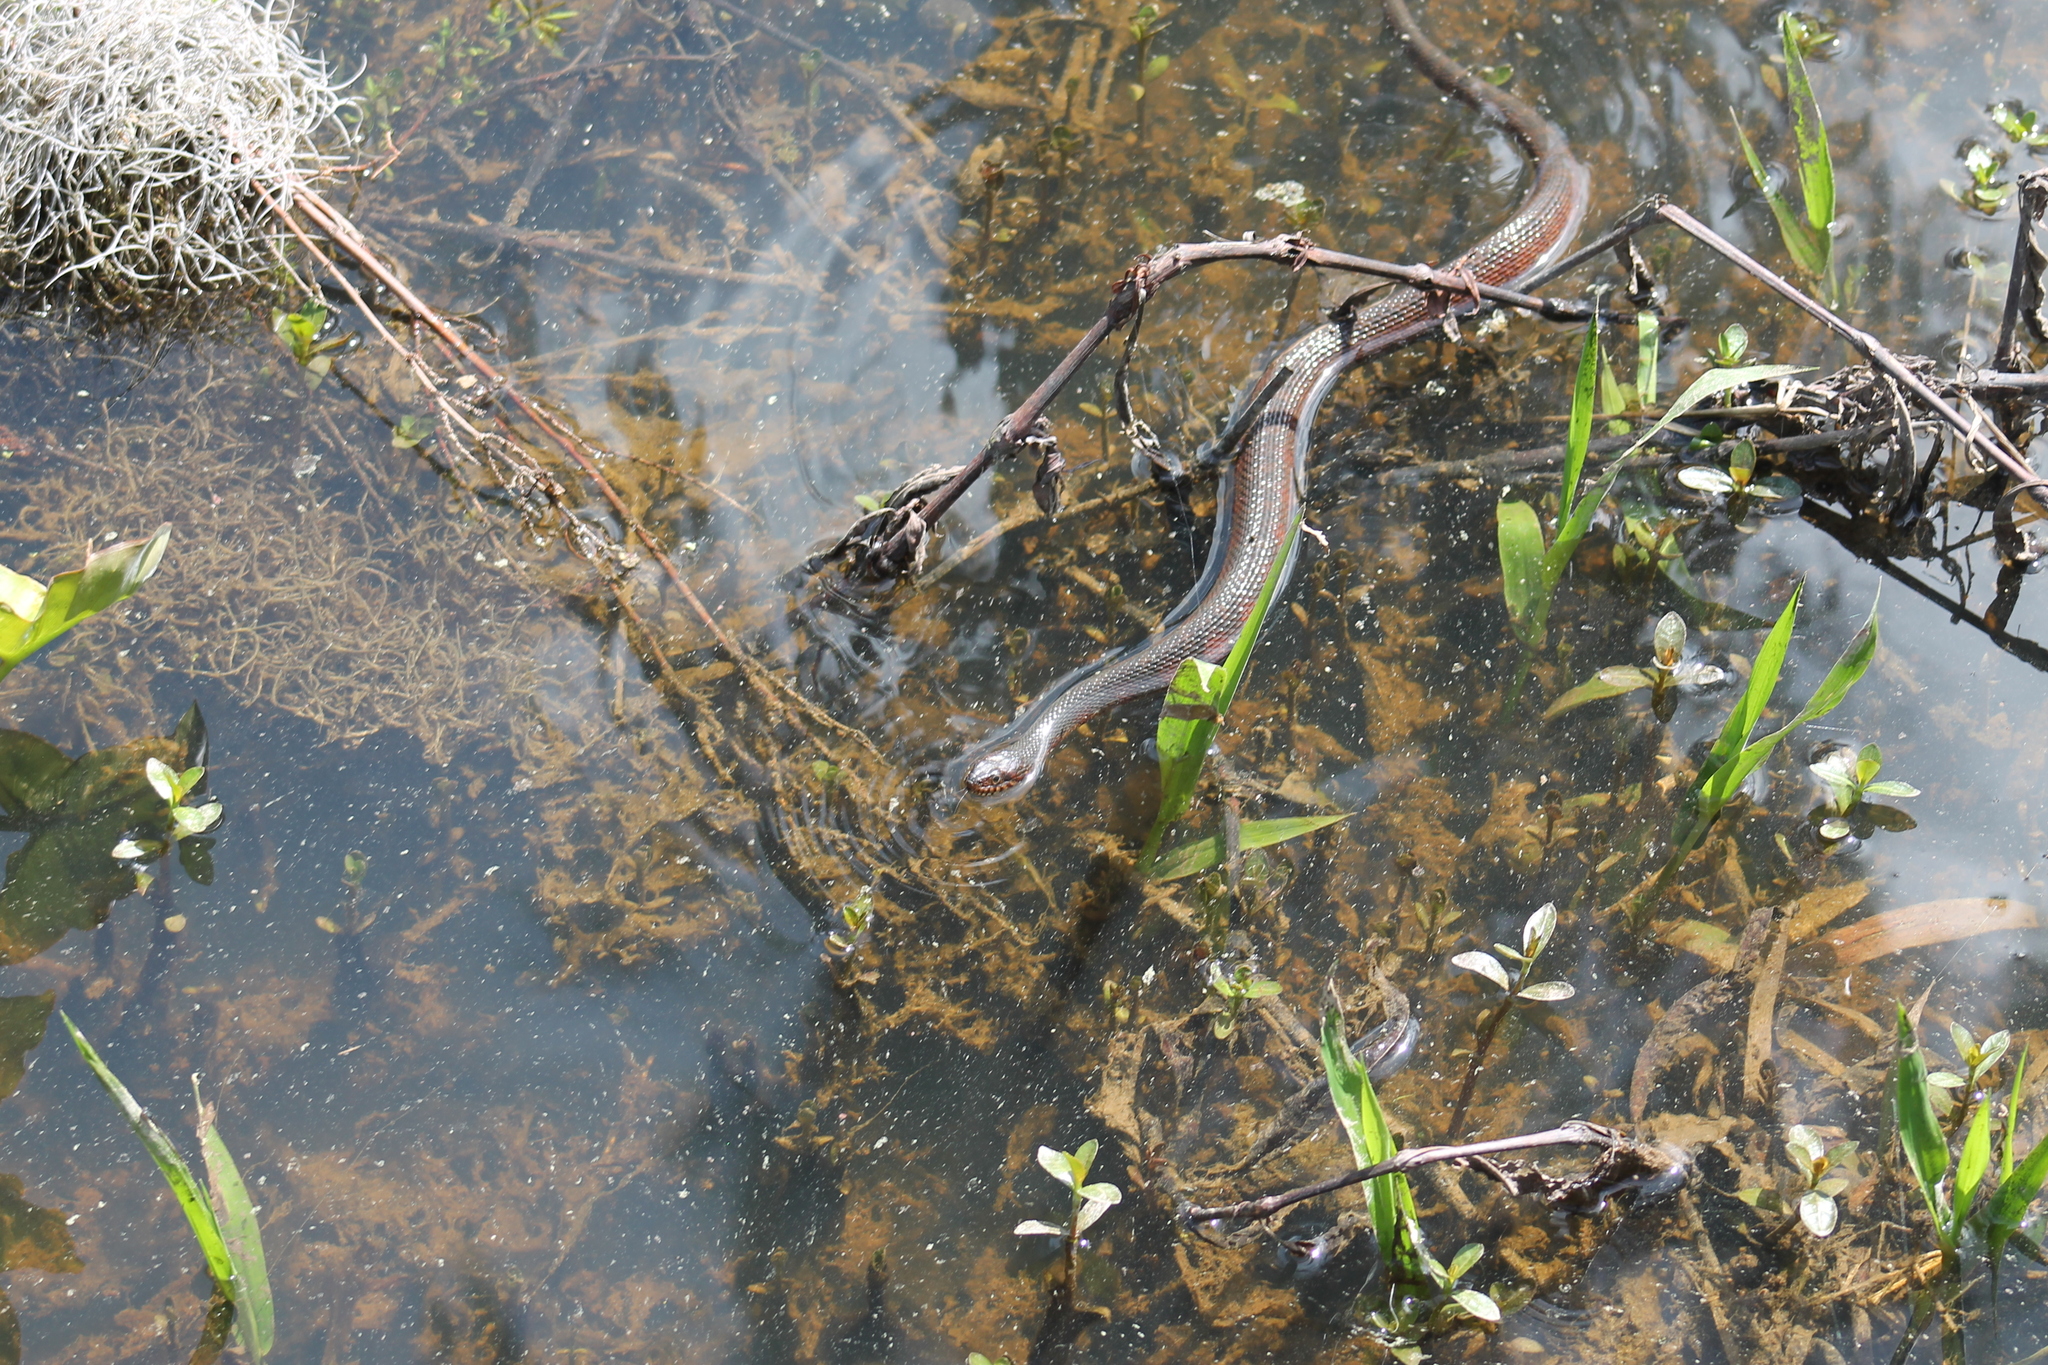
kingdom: Animalia
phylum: Chordata
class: Squamata
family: Colubridae
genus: Nerodia
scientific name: Nerodia fasciata
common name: Southern water snake
